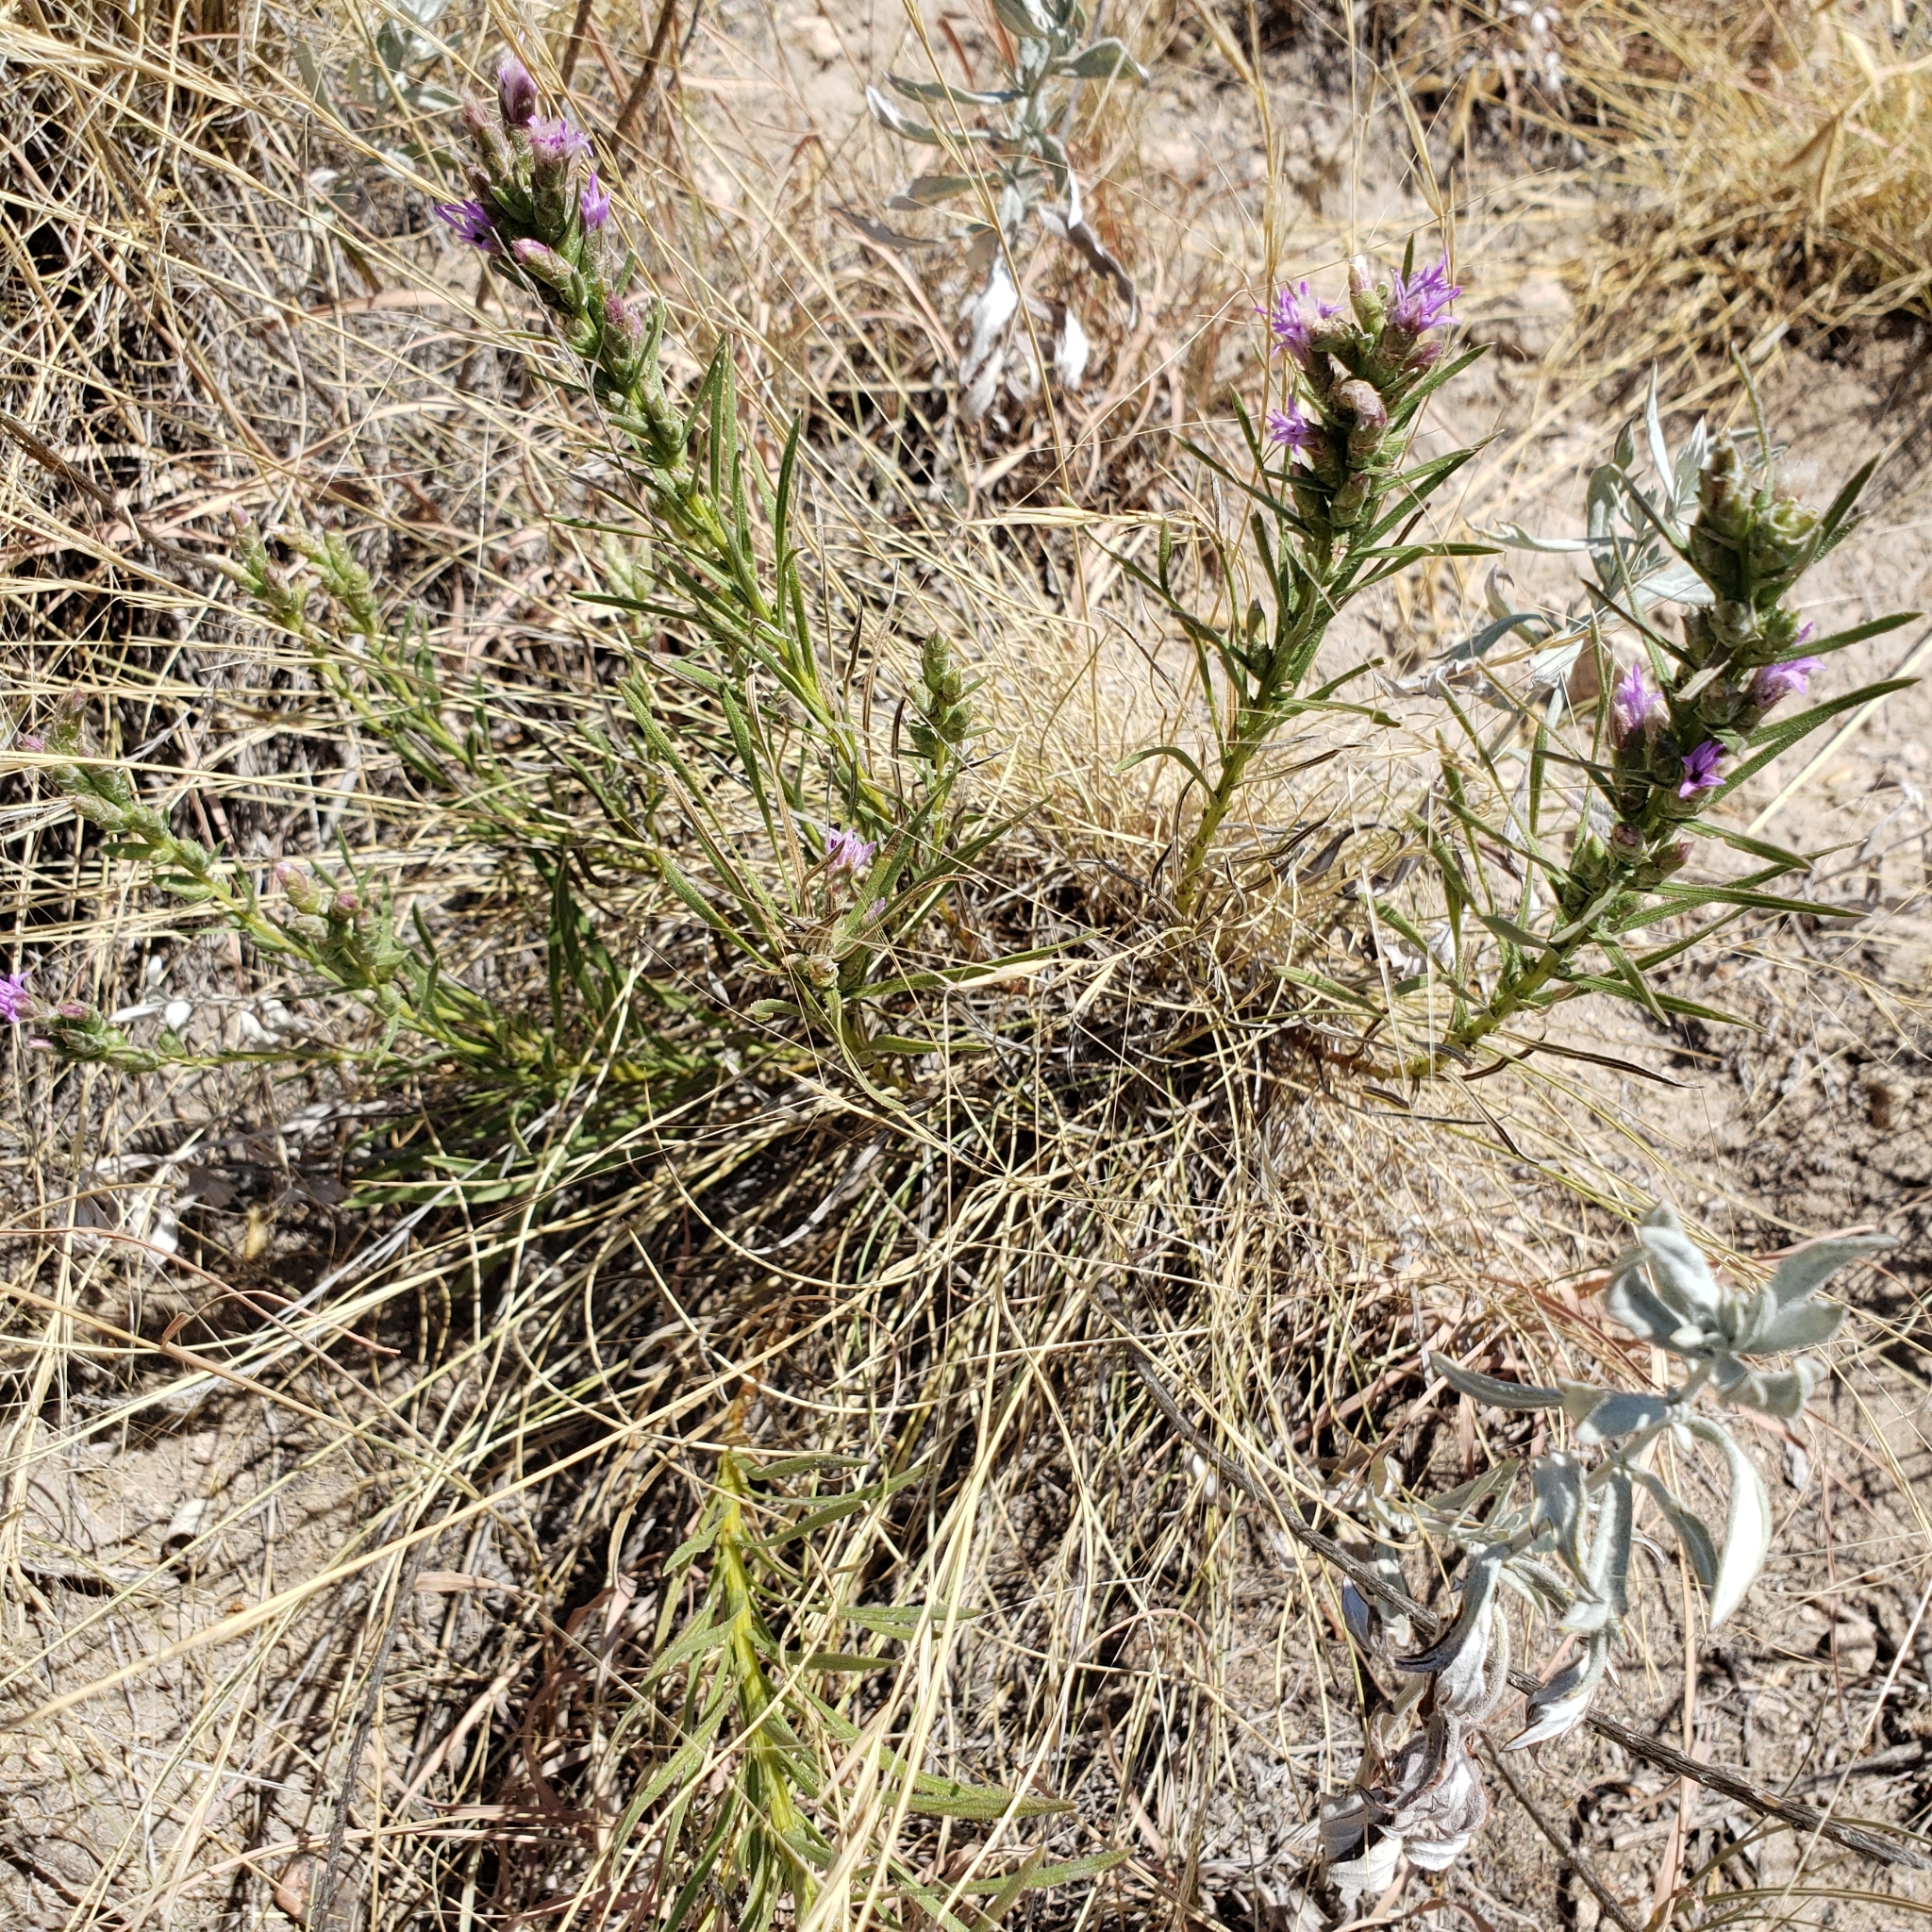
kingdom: Plantae
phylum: Tracheophyta
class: Magnoliopsida
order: Asterales
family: Asteraceae
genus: Liatris
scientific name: Liatris punctata
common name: Dotted gayfeather
